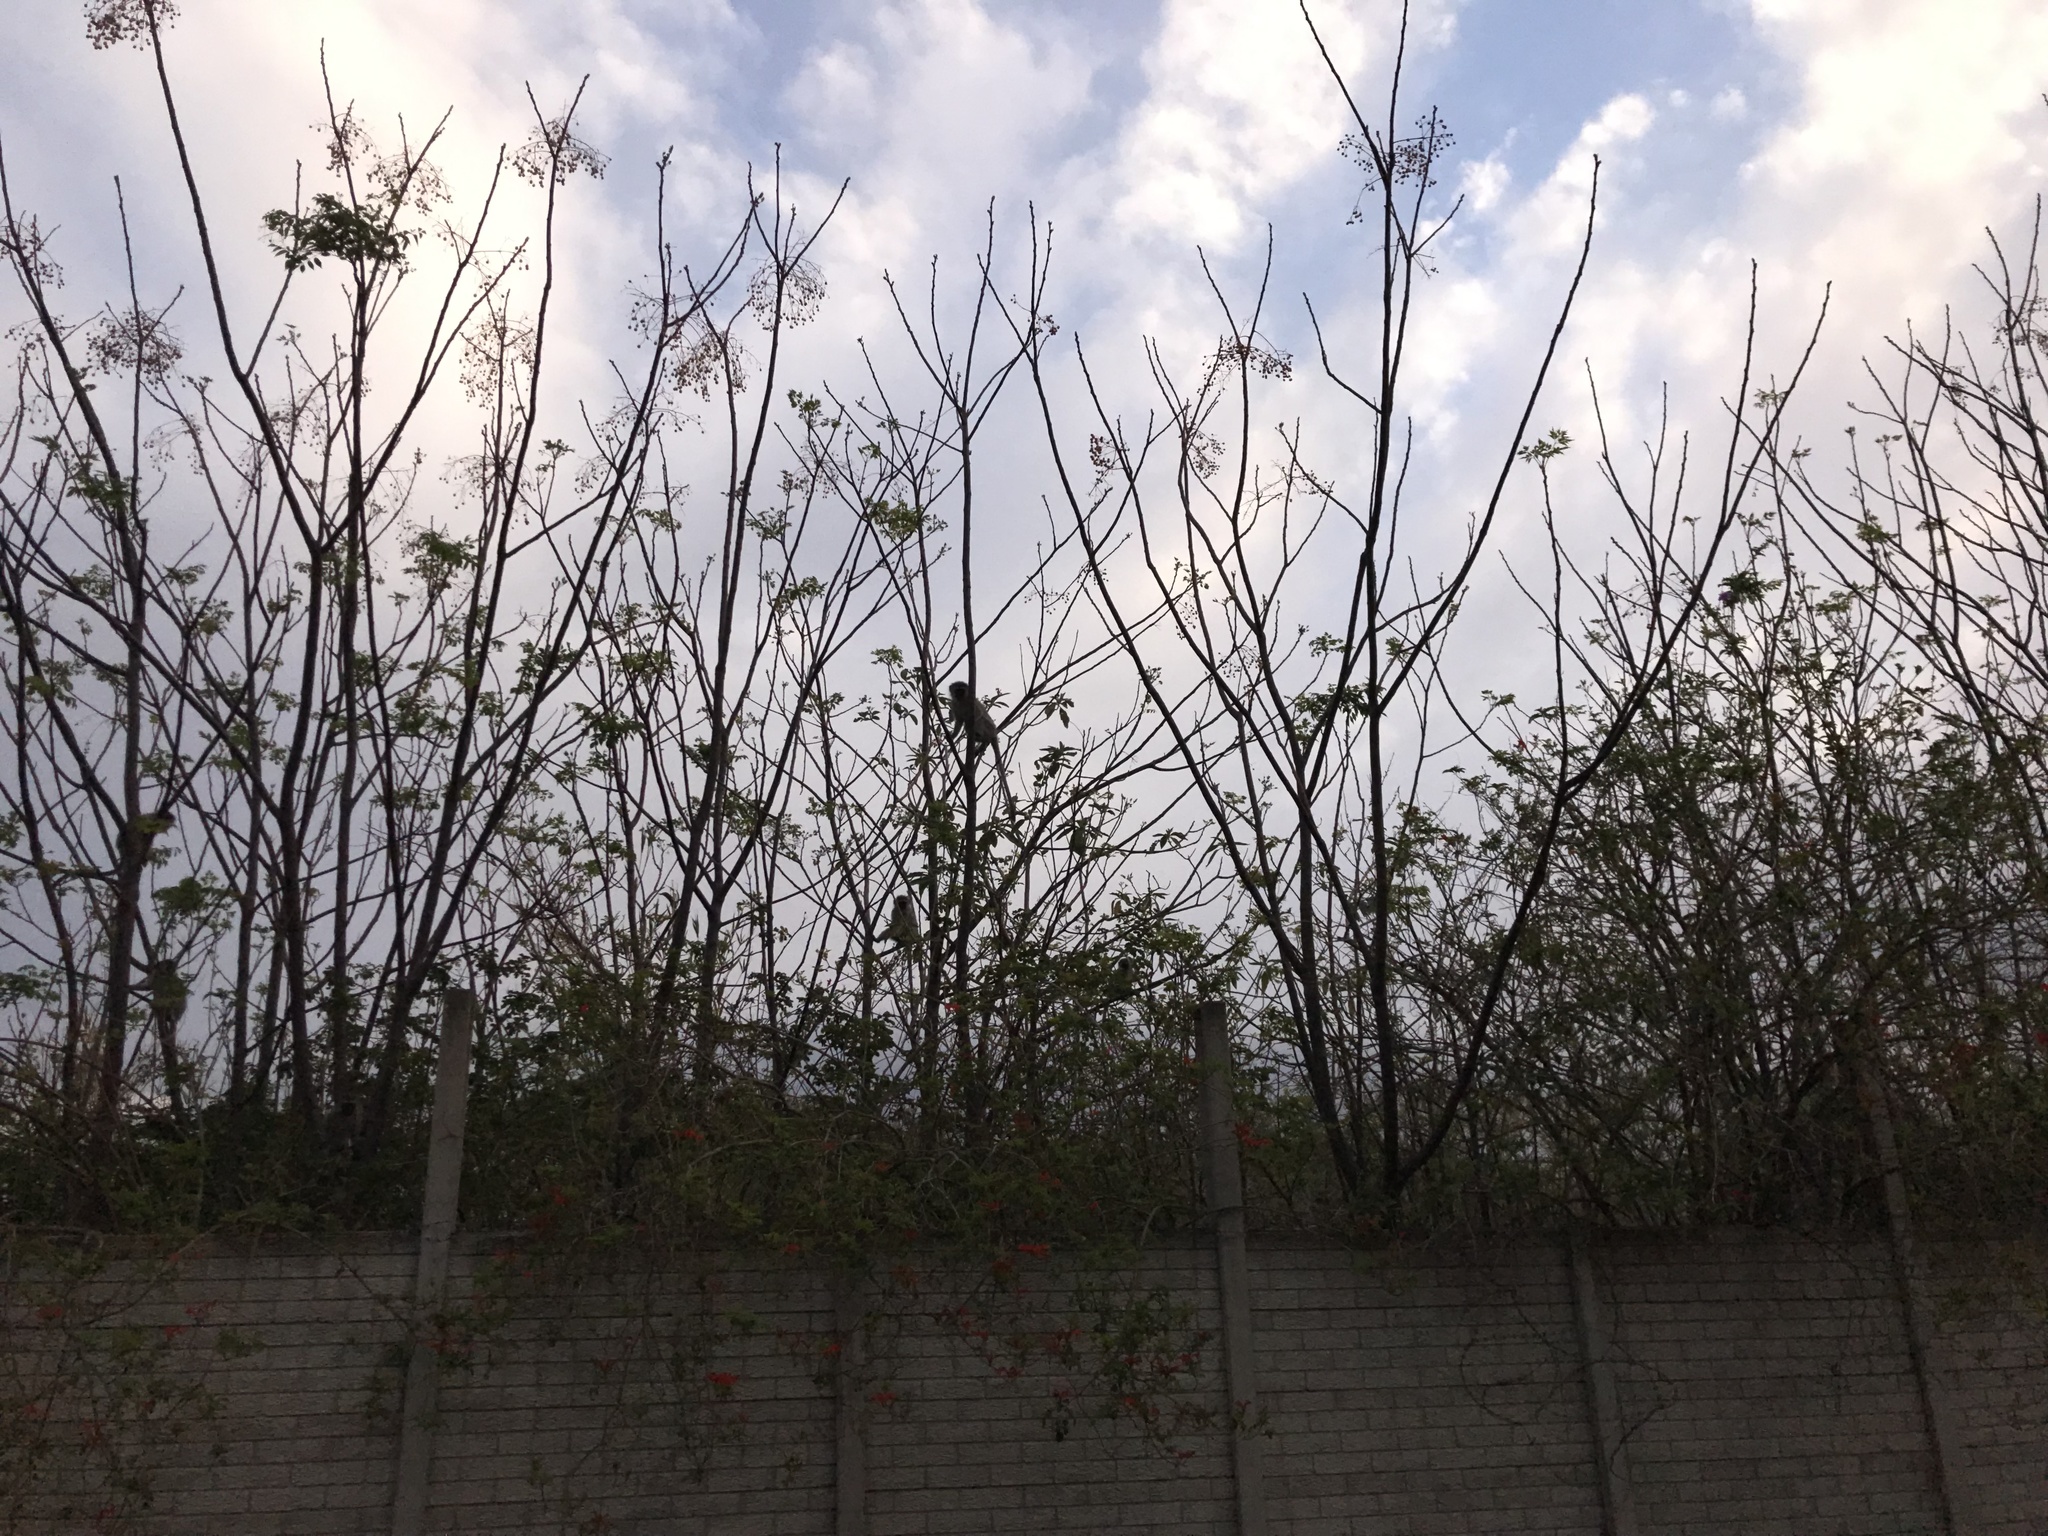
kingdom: Animalia
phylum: Chordata
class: Mammalia
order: Primates
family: Cercopithecidae
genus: Chlorocebus
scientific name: Chlorocebus pygerythrus
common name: Vervet monkey
